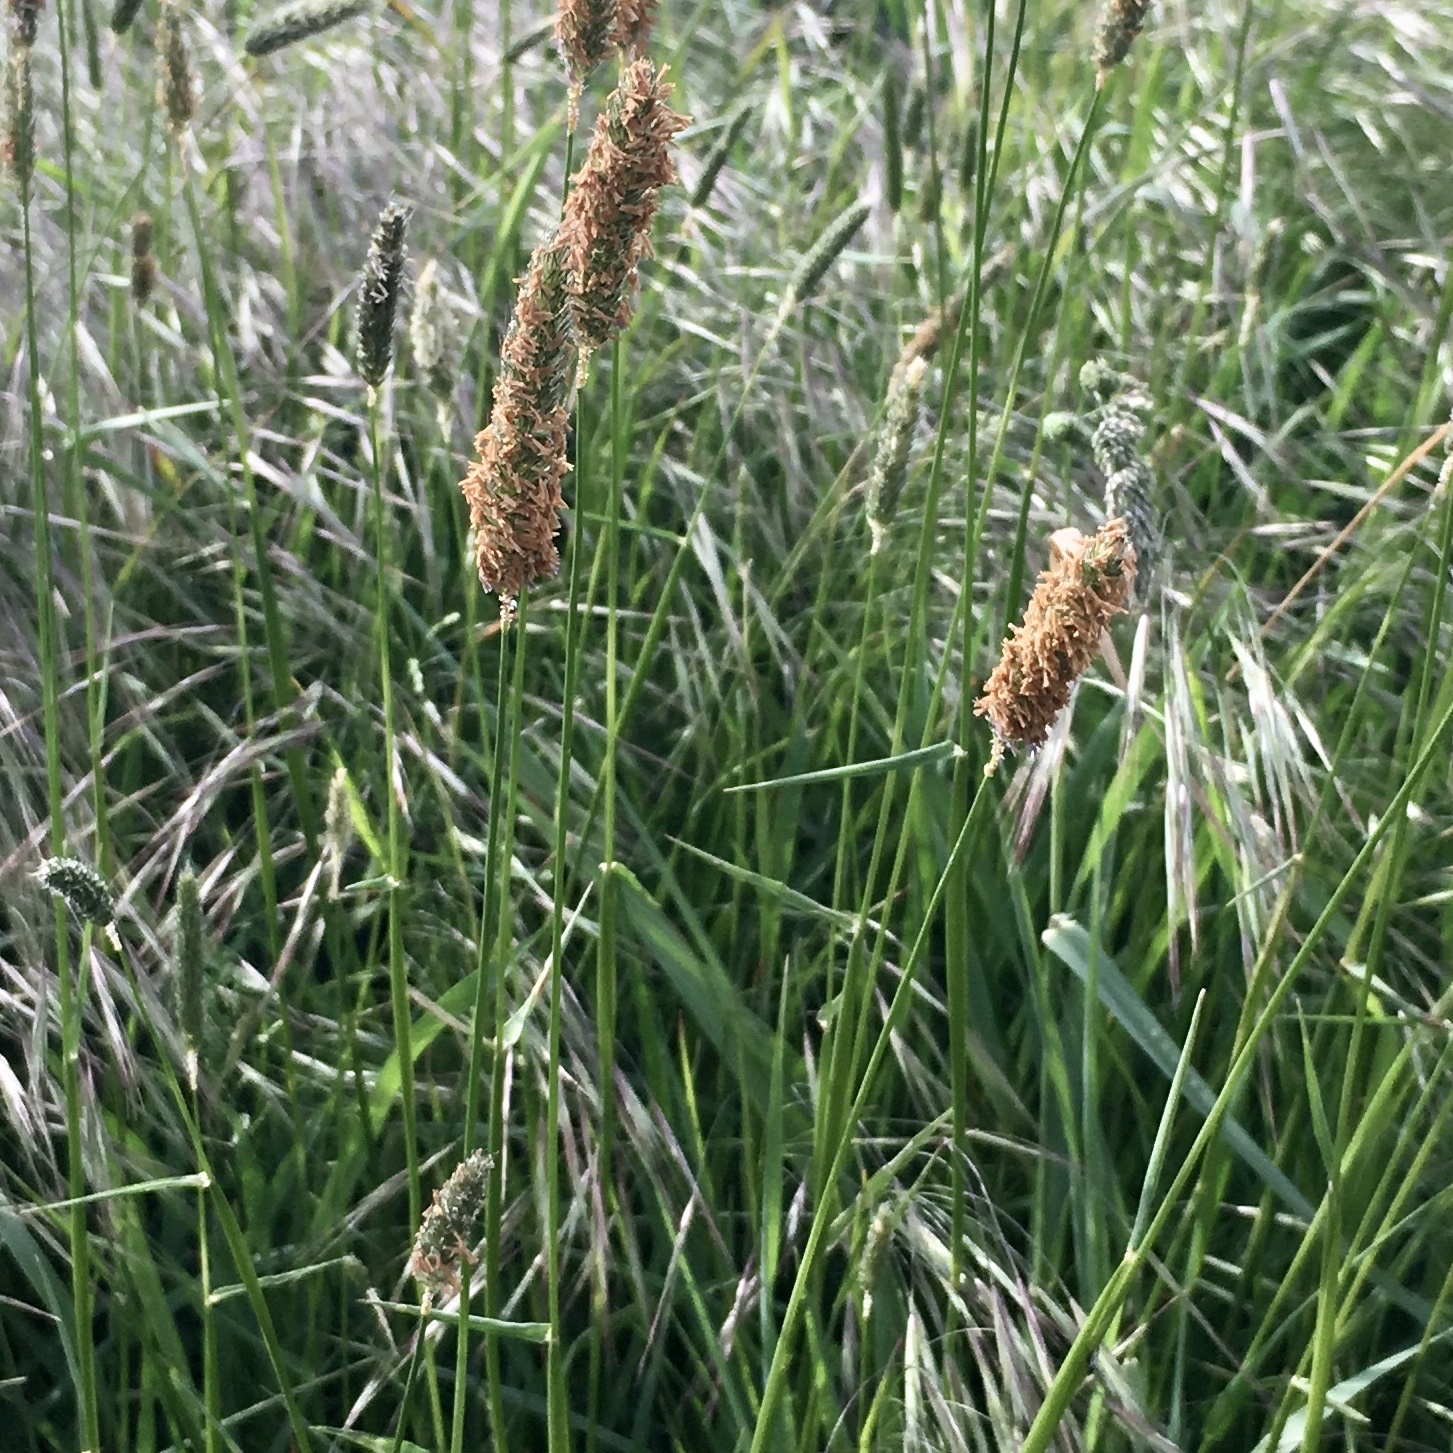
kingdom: Plantae
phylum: Tracheophyta
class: Liliopsida
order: Poales
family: Poaceae
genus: Alopecurus
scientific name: Alopecurus pratensis
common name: Meadow foxtail
